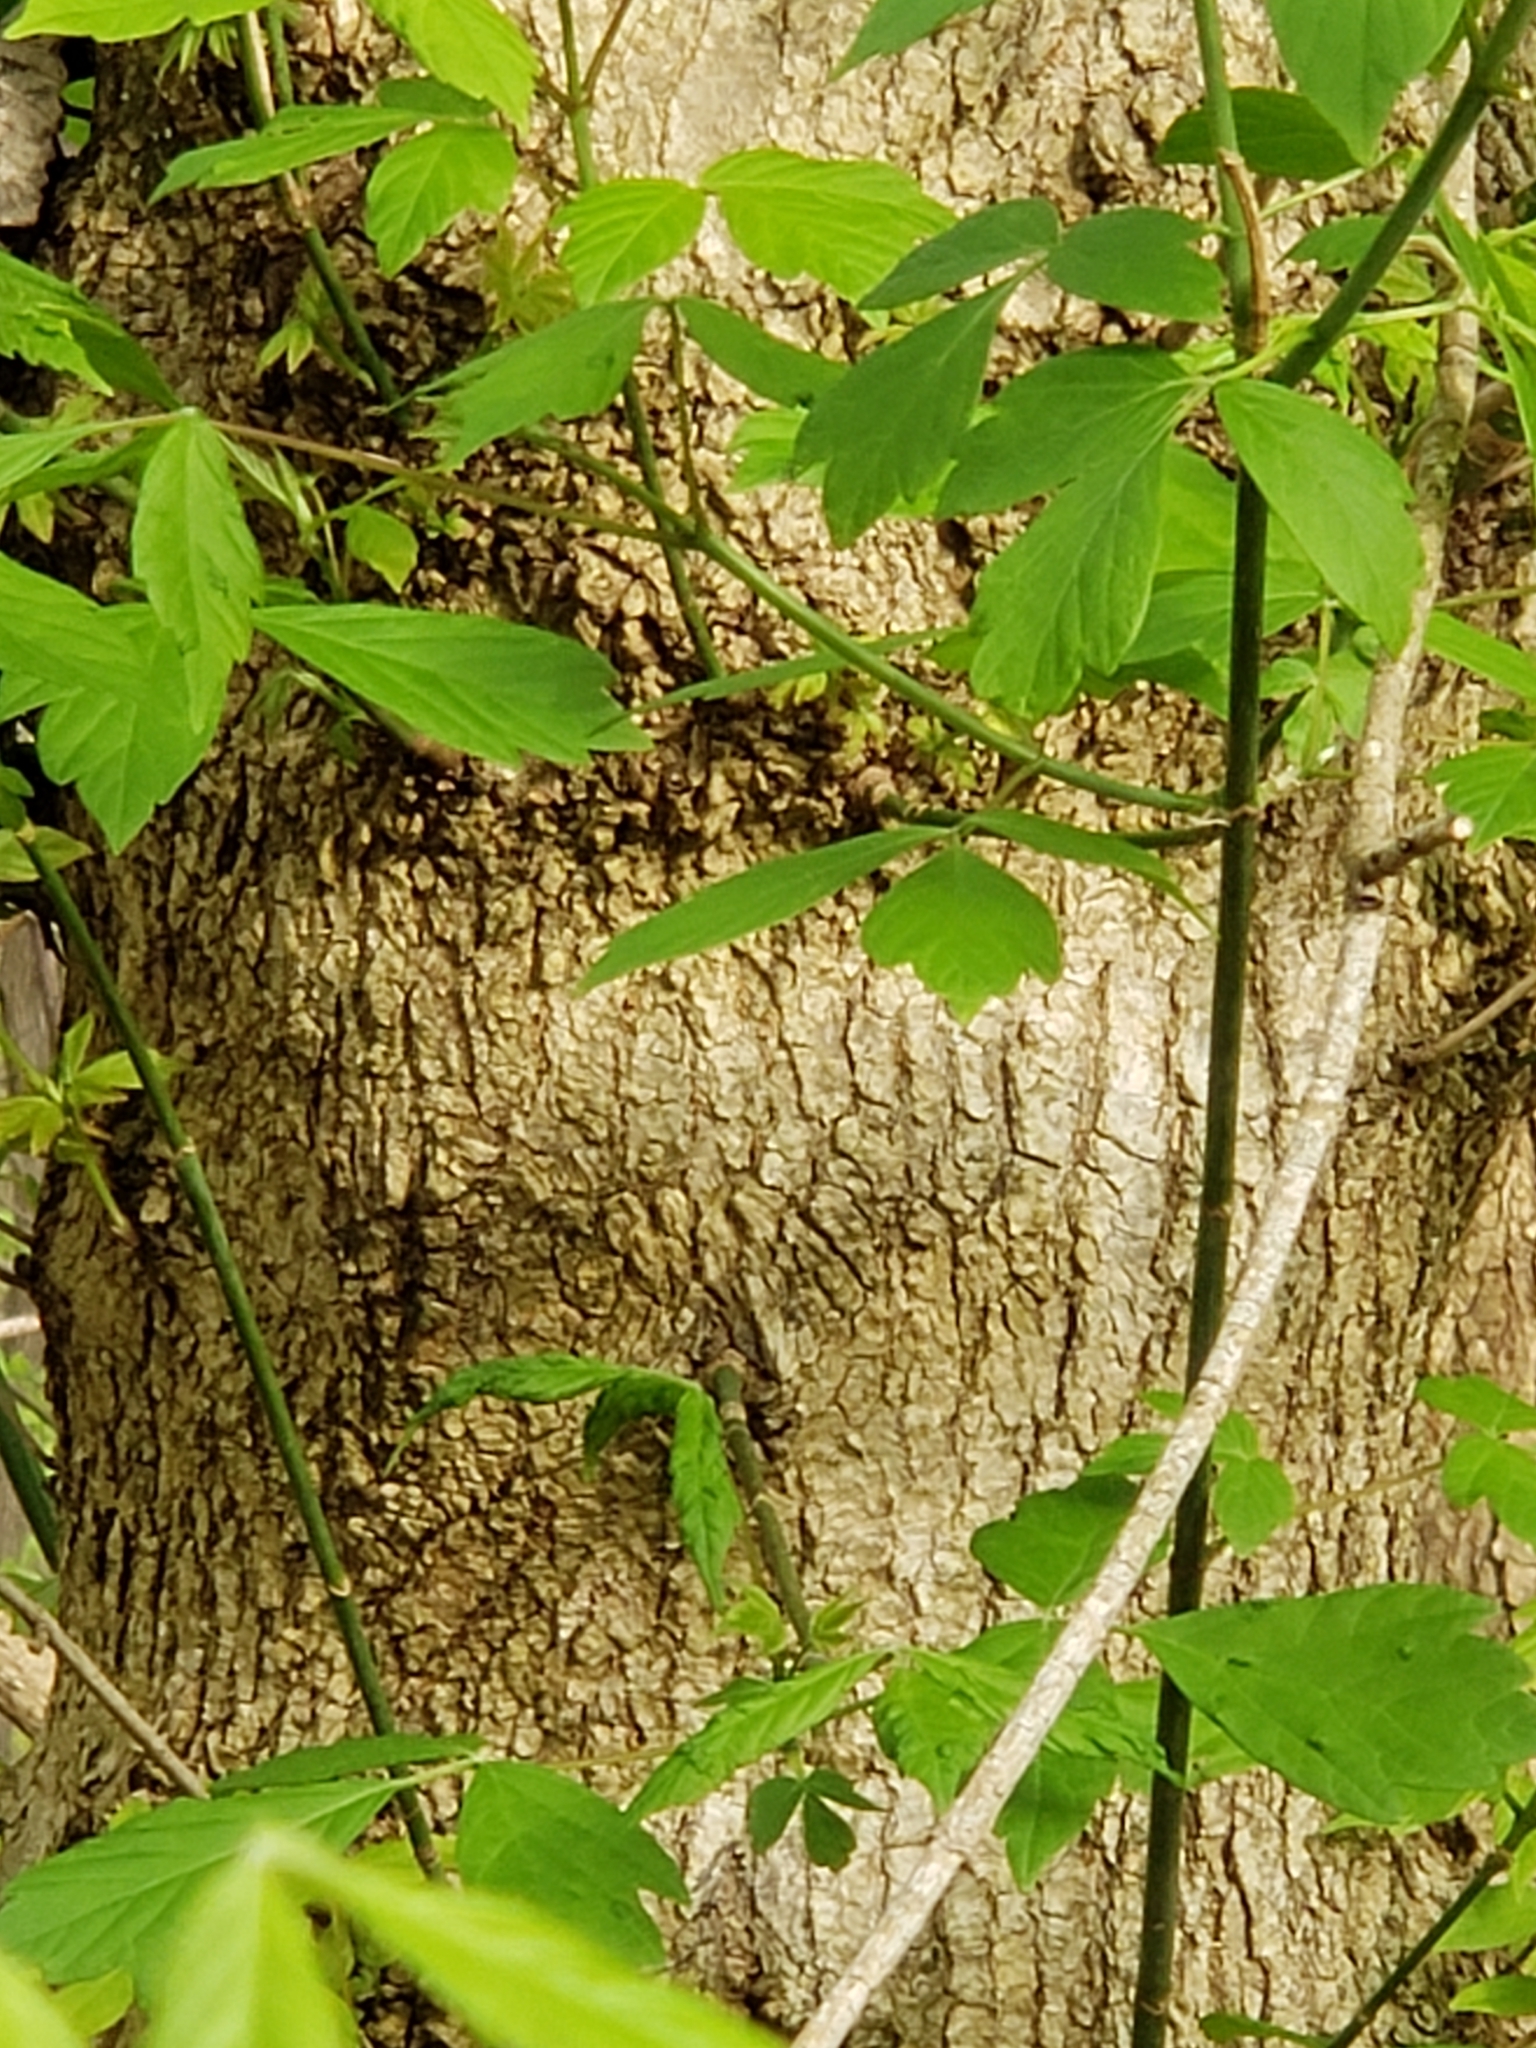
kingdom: Plantae
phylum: Tracheophyta
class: Magnoliopsida
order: Sapindales
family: Sapindaceae
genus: Acer
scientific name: Acer negundo
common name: Ashleaf maple
